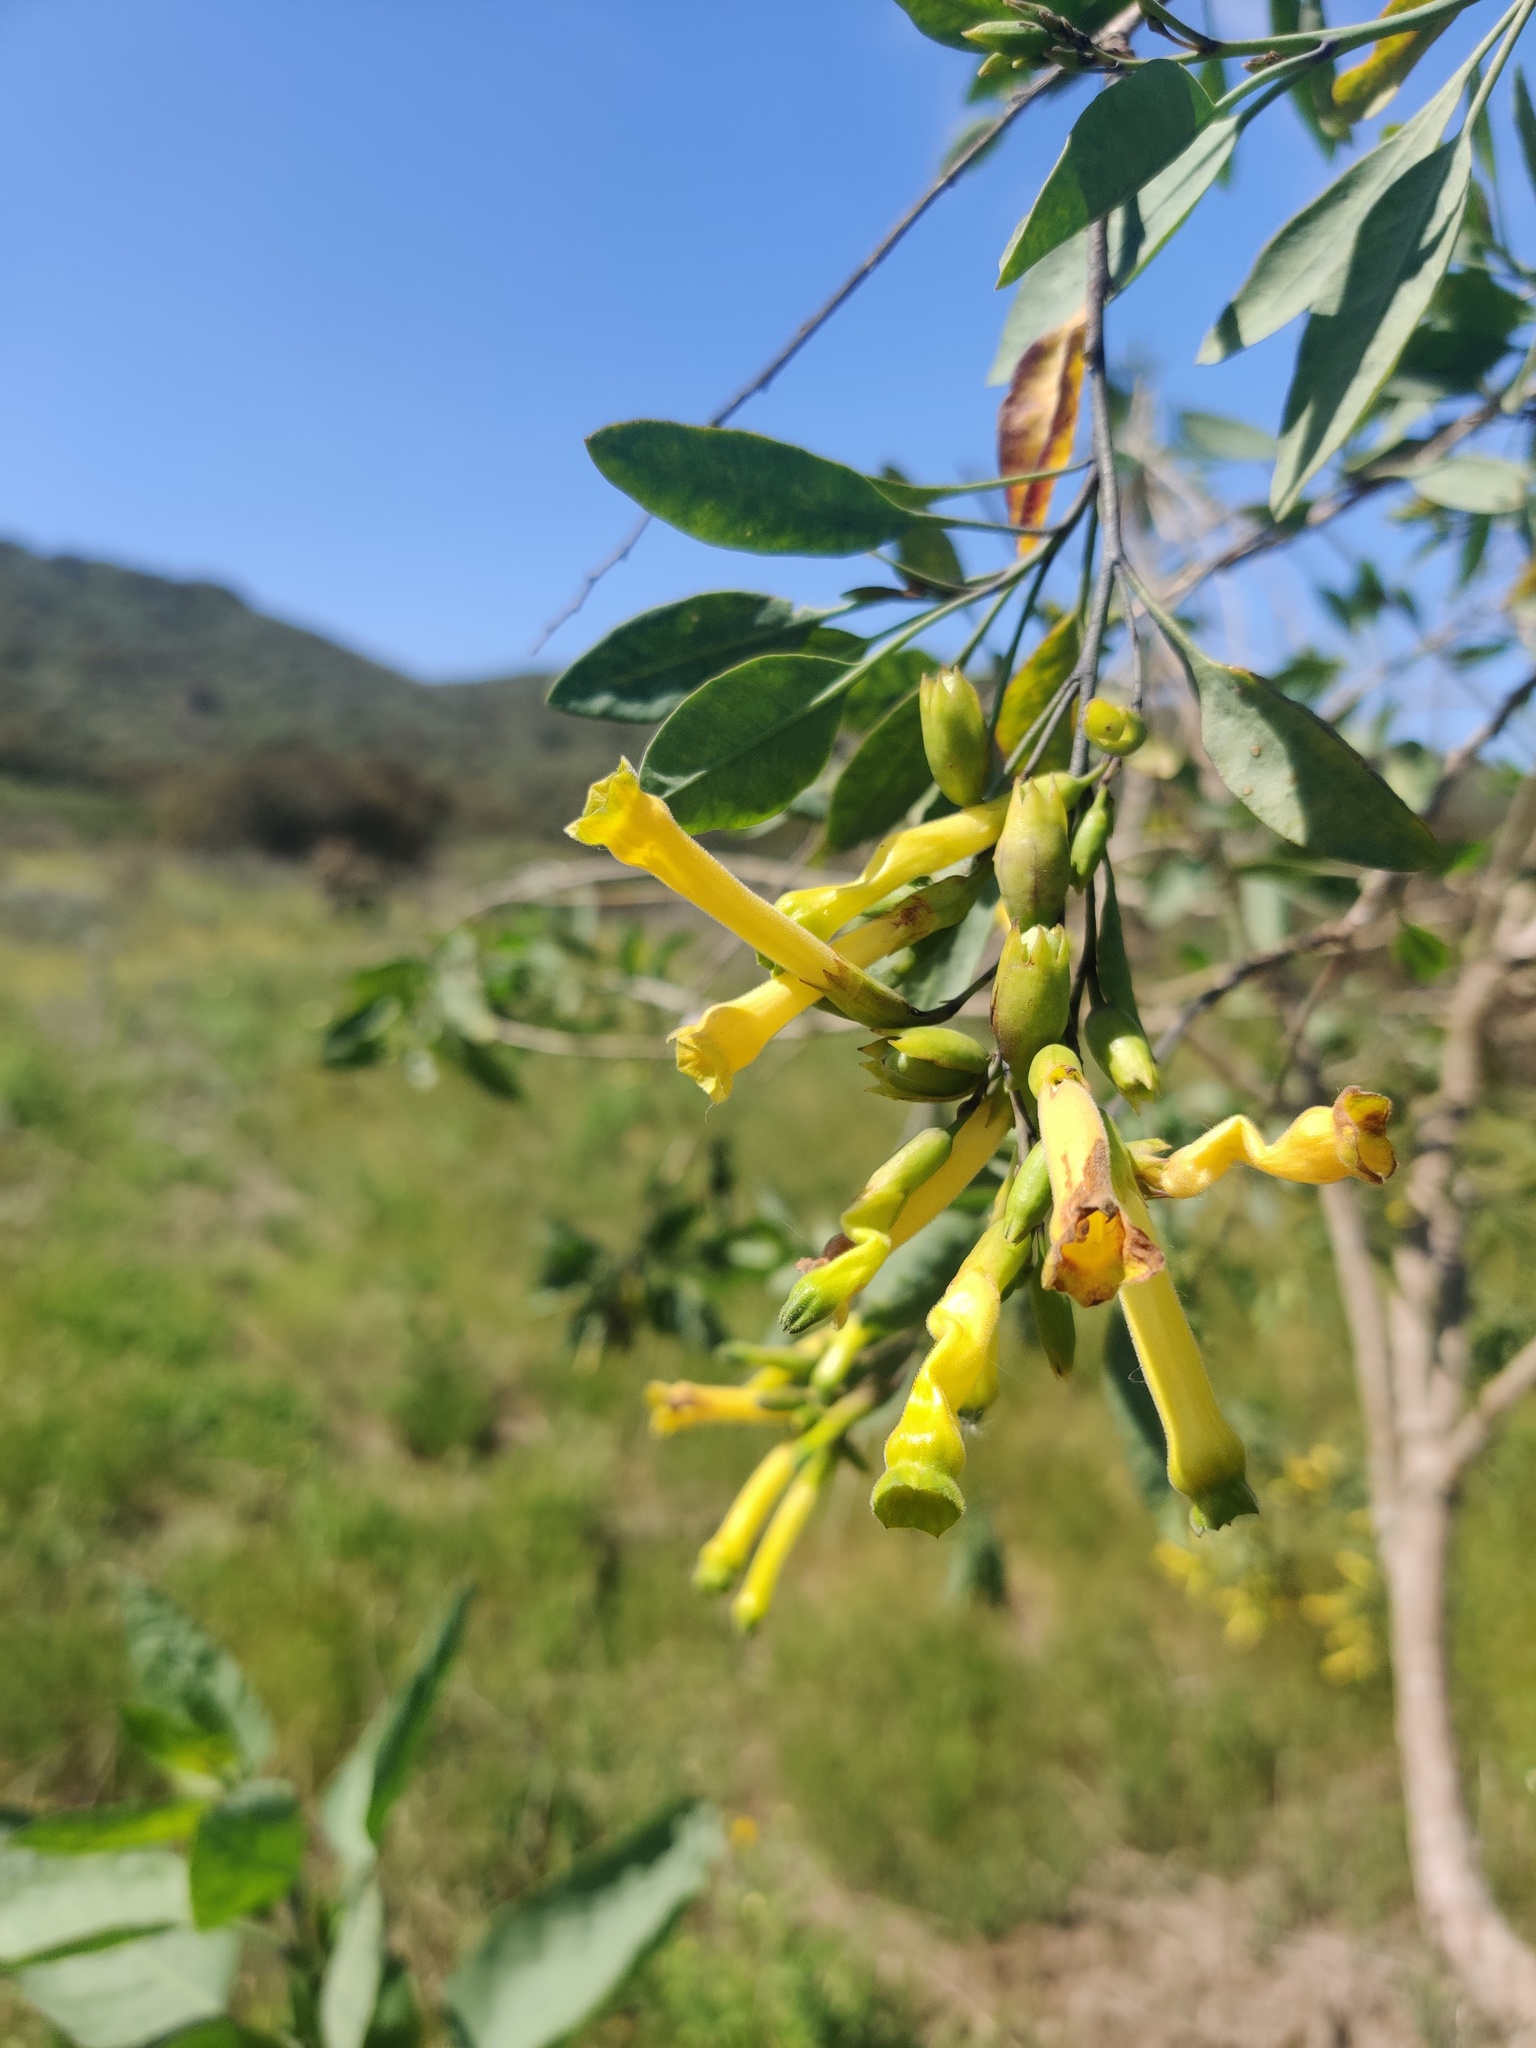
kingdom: Plantae
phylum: Tracheophyta
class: Magnoliopsida
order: Solanales
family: Solanaceae
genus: Nicotiana
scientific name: Nicotiana glauca
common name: Tree tobacco
